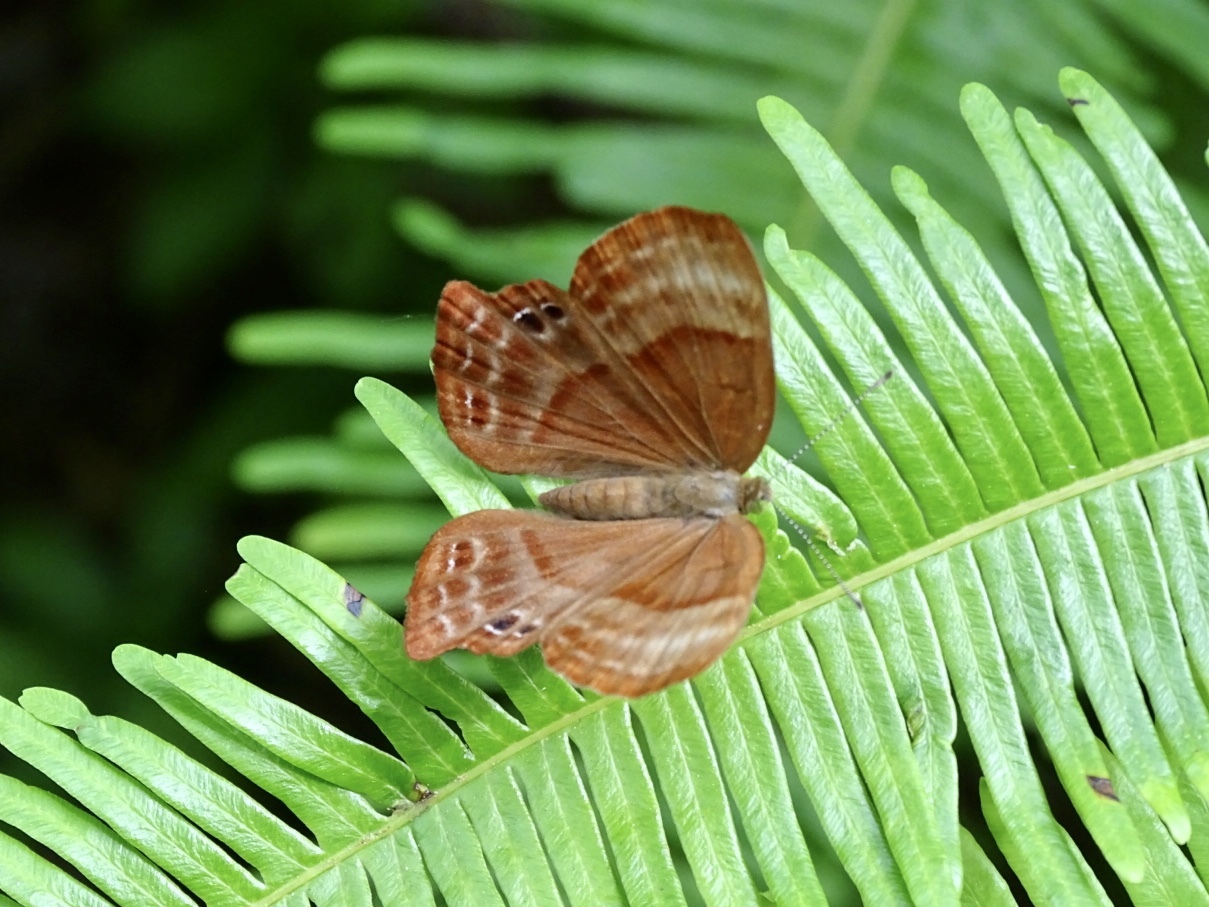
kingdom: Animalia
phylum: Arthropoda
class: Insecta
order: Lepidoptera
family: Lycaenidae
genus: Abisara
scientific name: Abisara echeria
